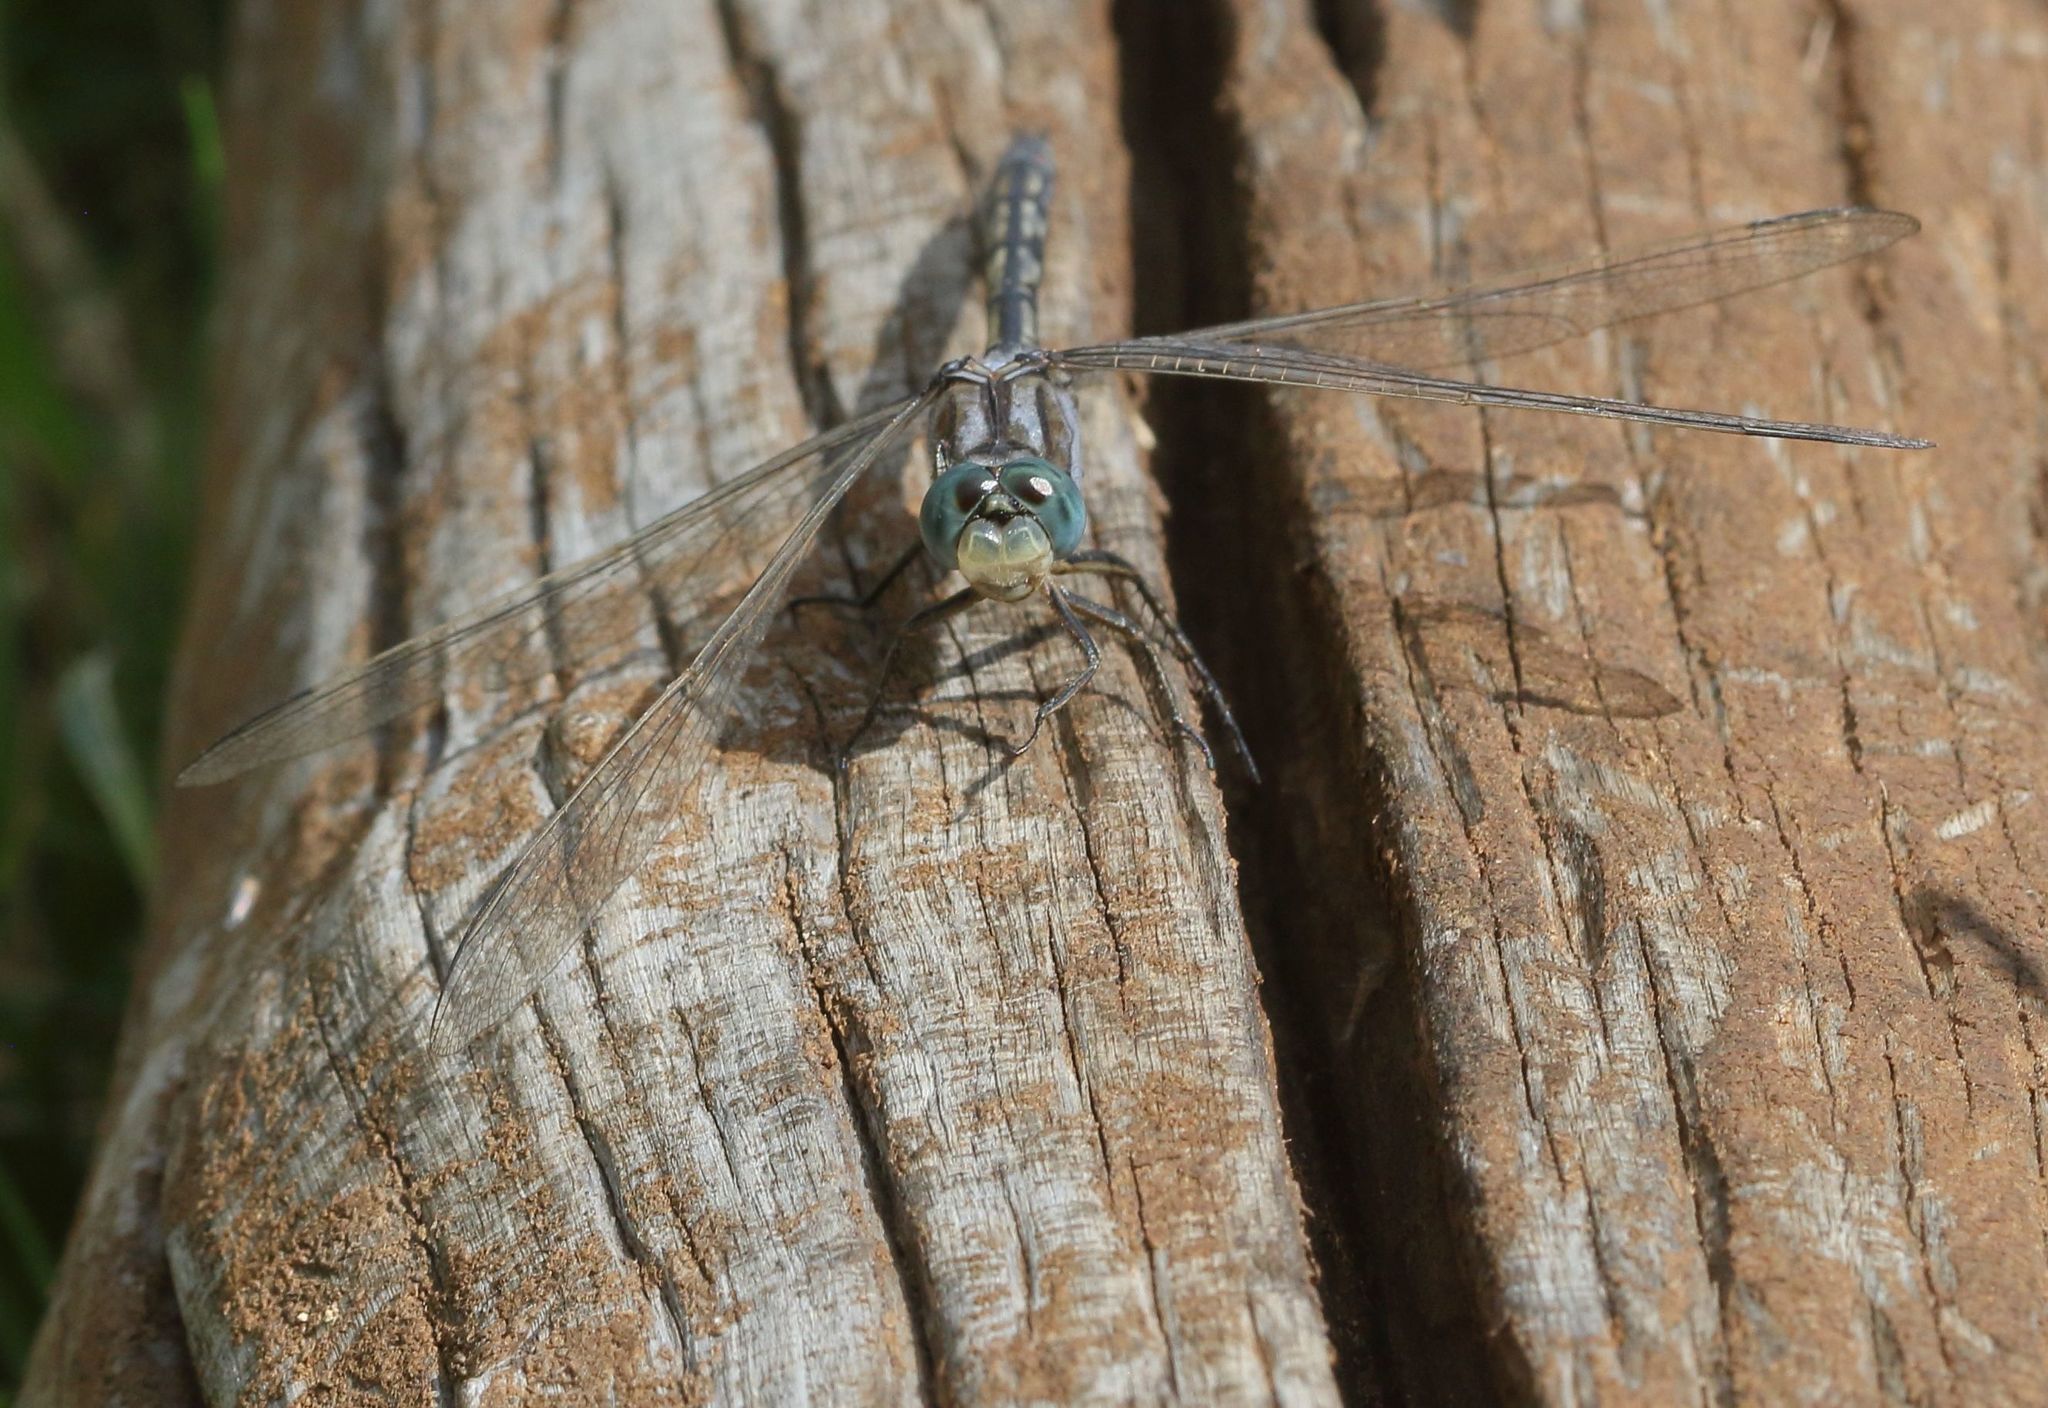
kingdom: Animalia
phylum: Arthropoda
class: Insecta
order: Odonata
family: Libellulidae
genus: Orthetrum
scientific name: Orthetrum trinacria
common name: Long skimmer
